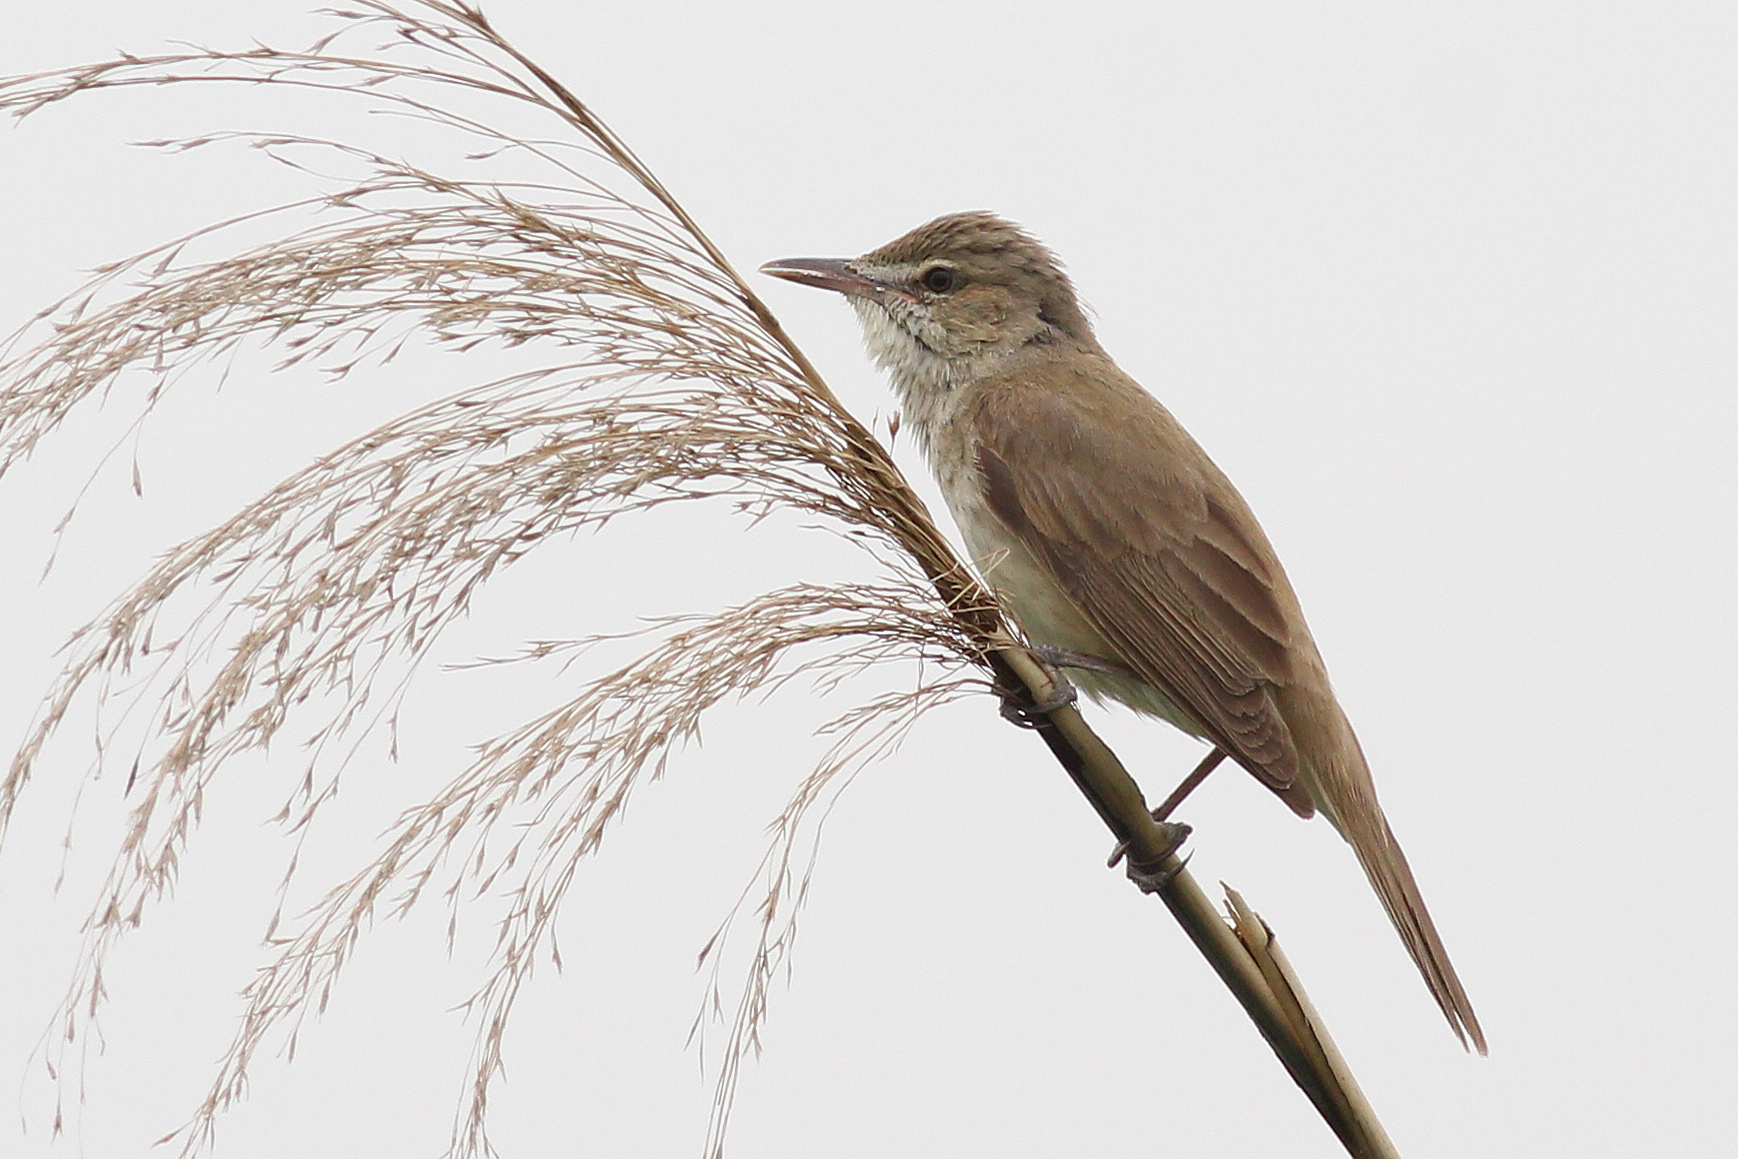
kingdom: Animalia
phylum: Chordata
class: Aves
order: Passeriformes
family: Acrocephalidae
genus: Acrocephalus
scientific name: Acrocephalus orientalis
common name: Oriental reed warbler
